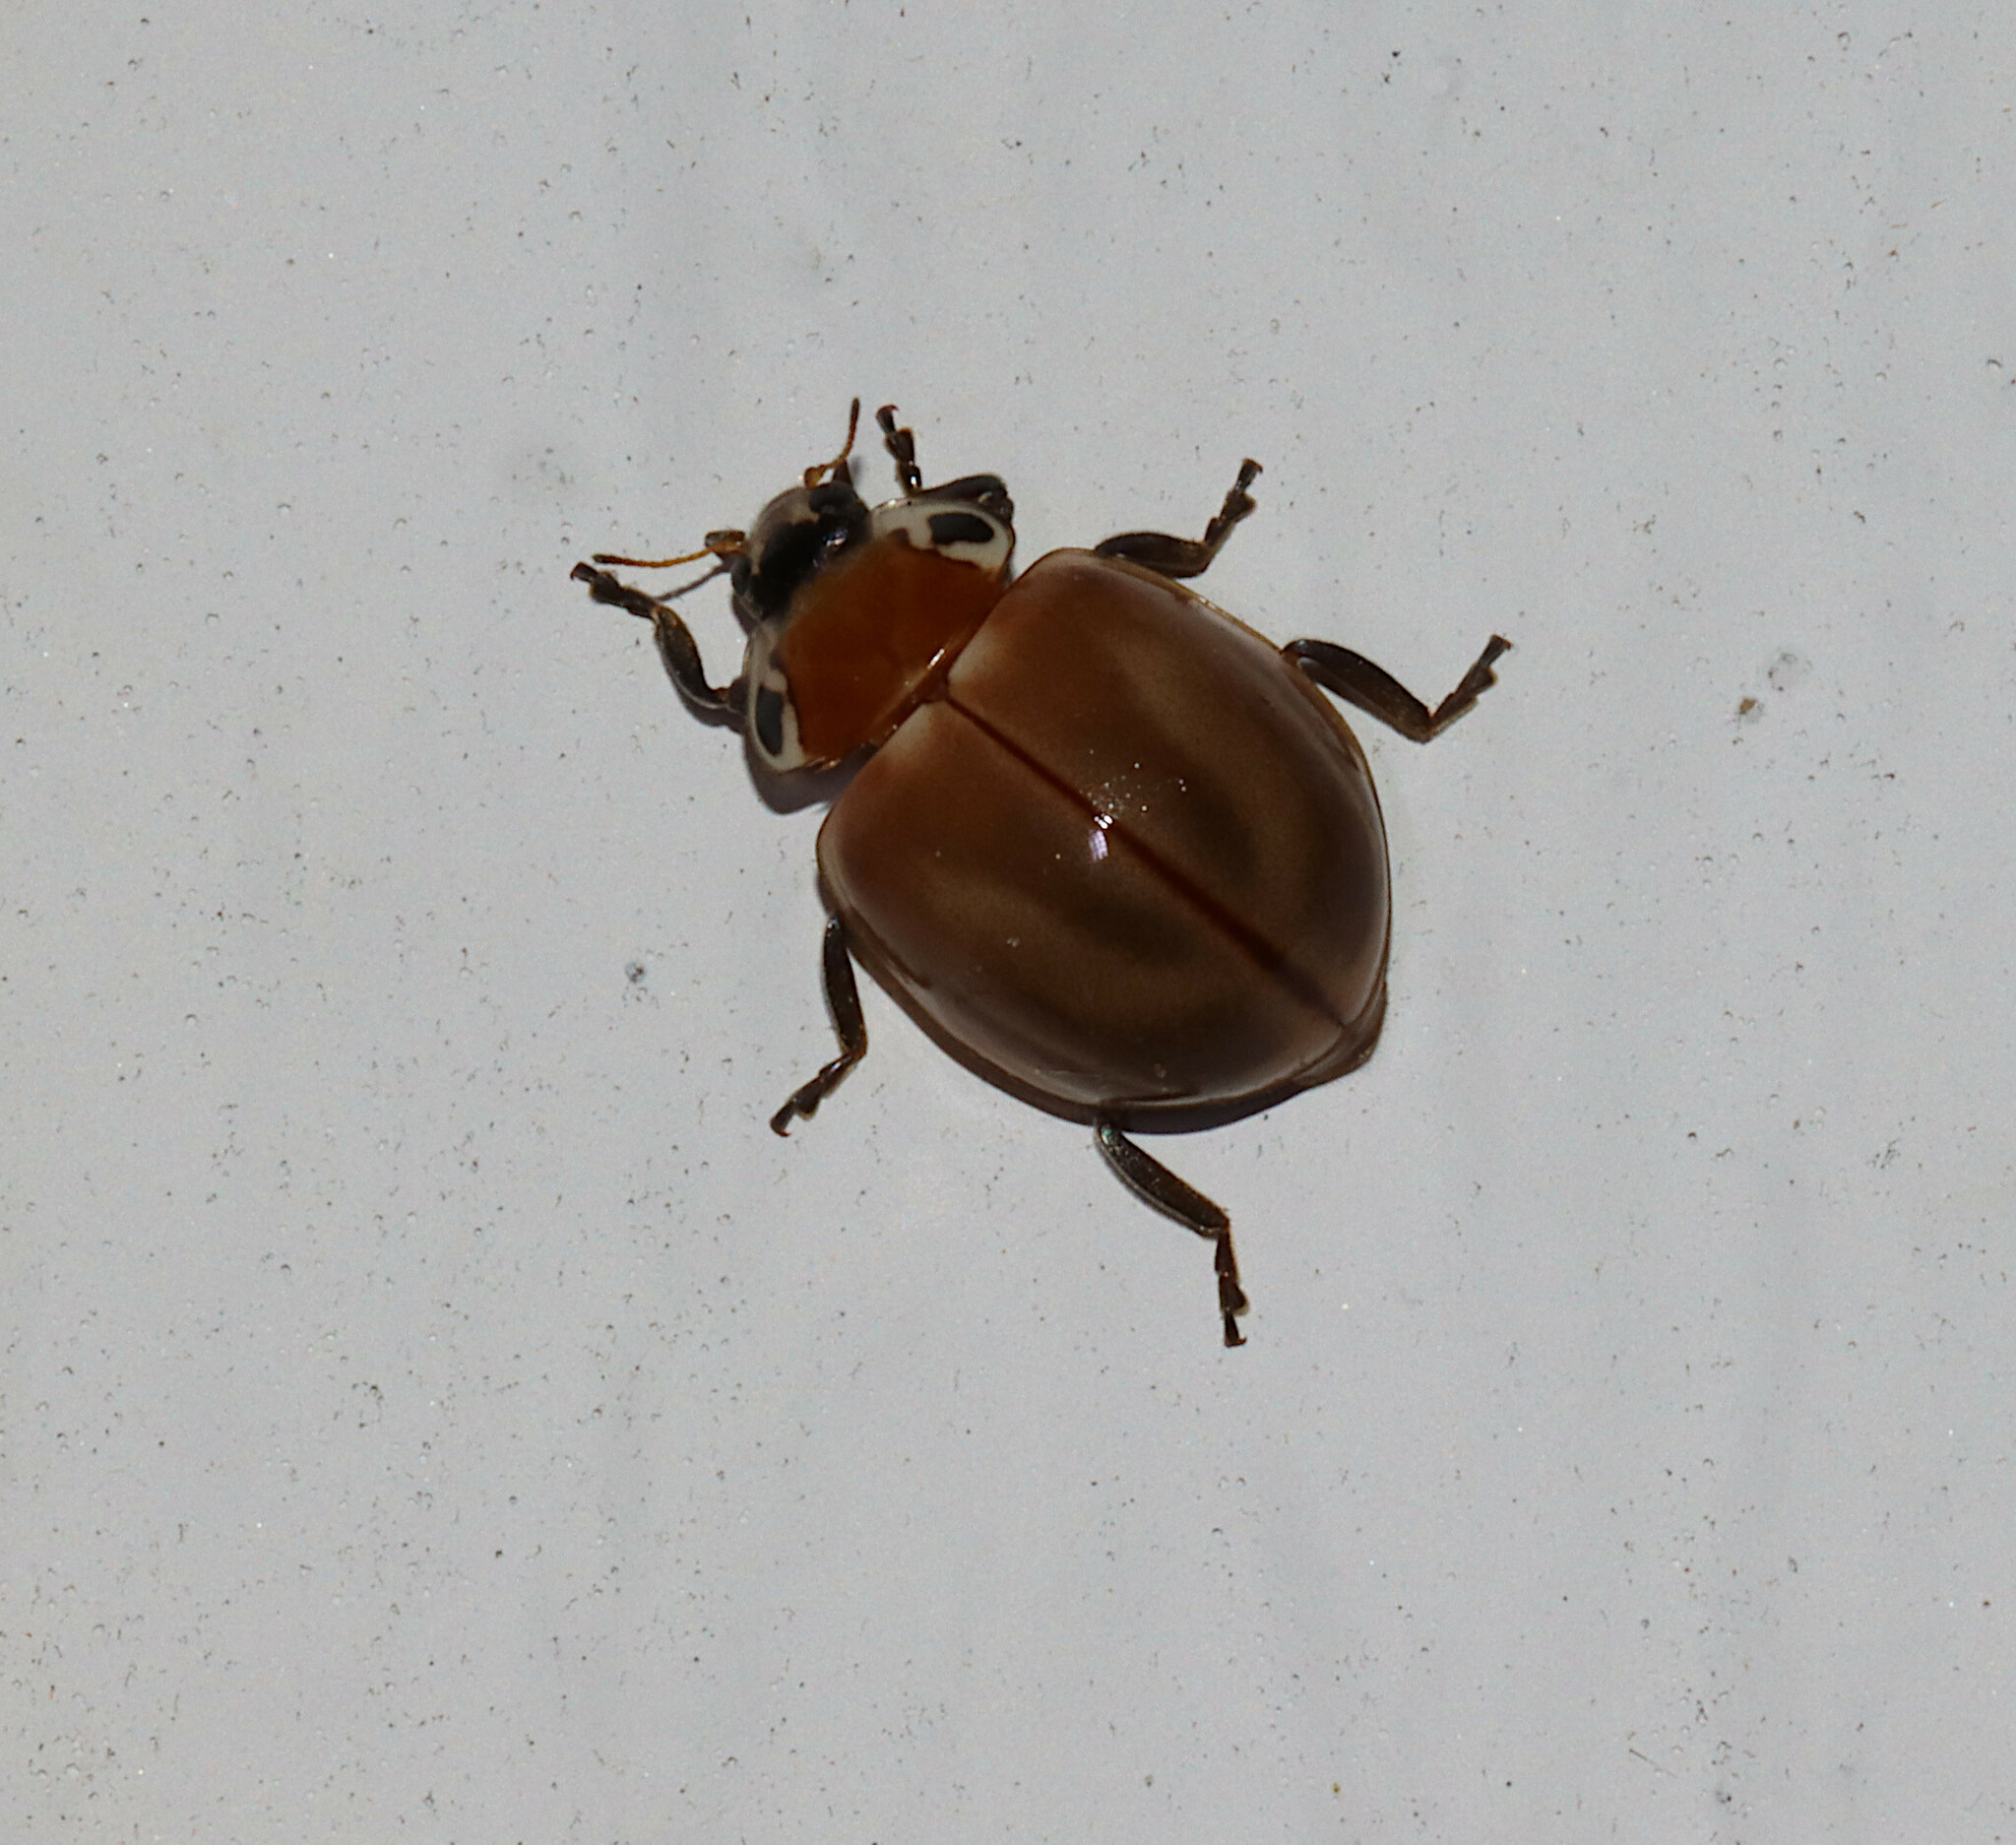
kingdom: Animalia
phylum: Arthropoda
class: Insecta
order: Coleoptera
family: Coccinellidae
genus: Myzia
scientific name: Myzia pullata
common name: Streaked lady beetle
